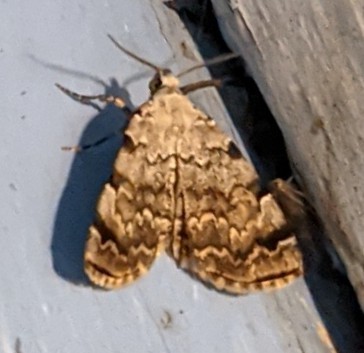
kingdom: Animalia
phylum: Arthropoda
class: Insecta
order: Lepidoptera
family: Erebidae
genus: Idia
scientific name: Idia americalis
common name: American idia moth
